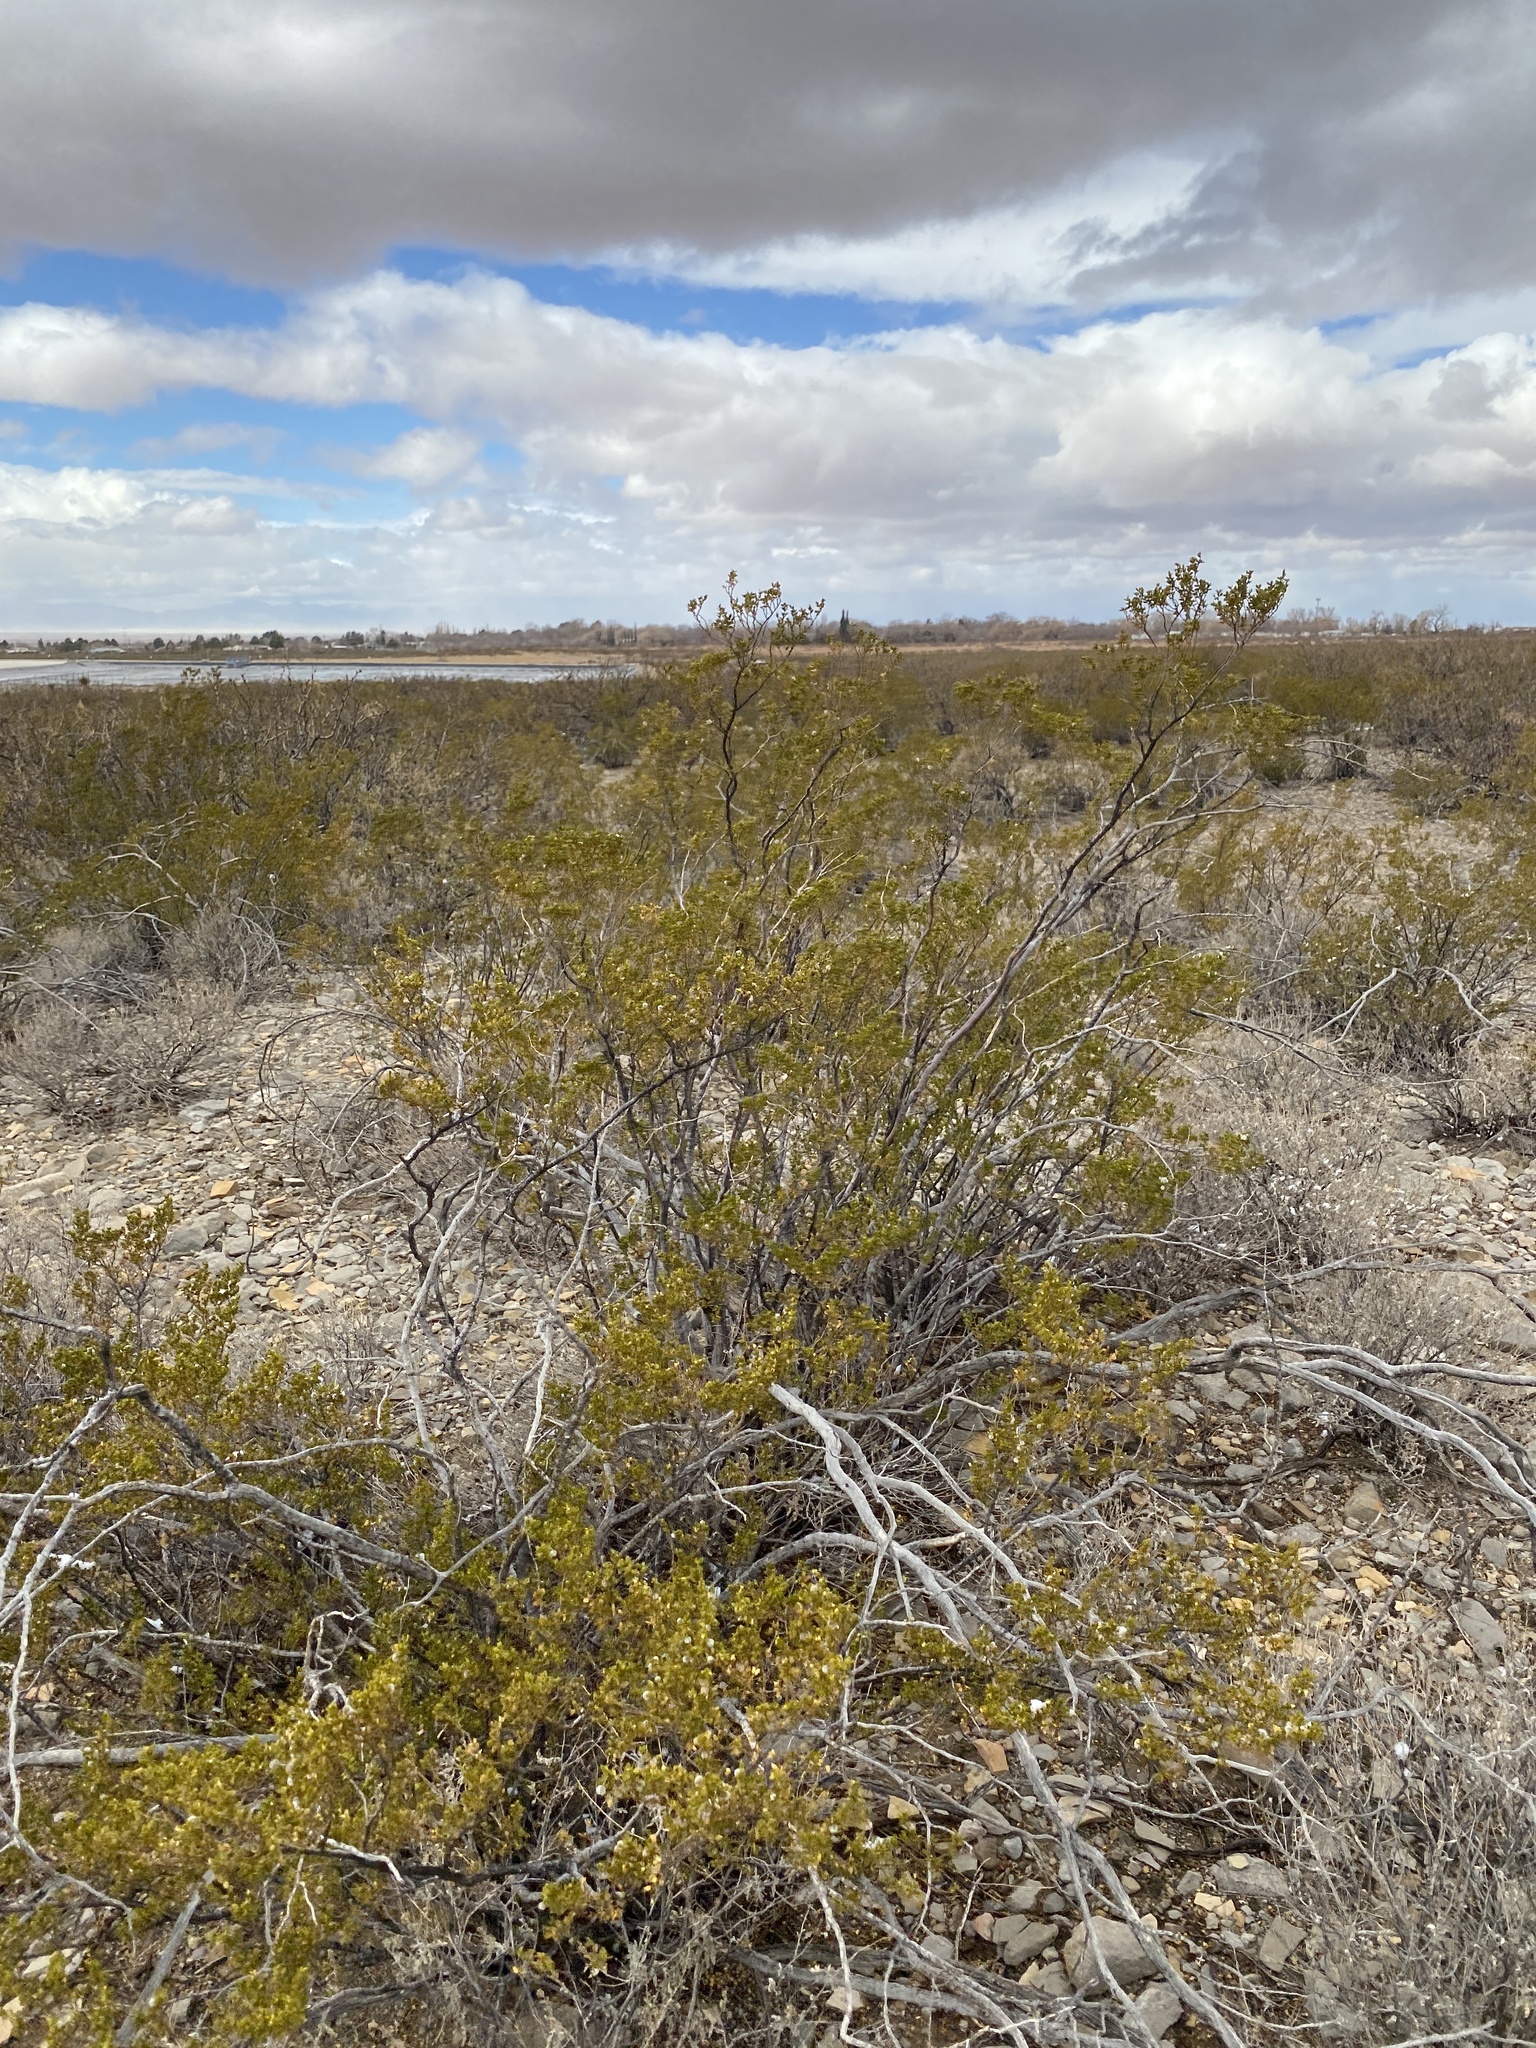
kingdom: Plantae
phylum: Tracheophyta
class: Magnoliopsida
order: Zygophyllales
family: Zygophyllaceae
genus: Larrea
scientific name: Larrea tridentata
